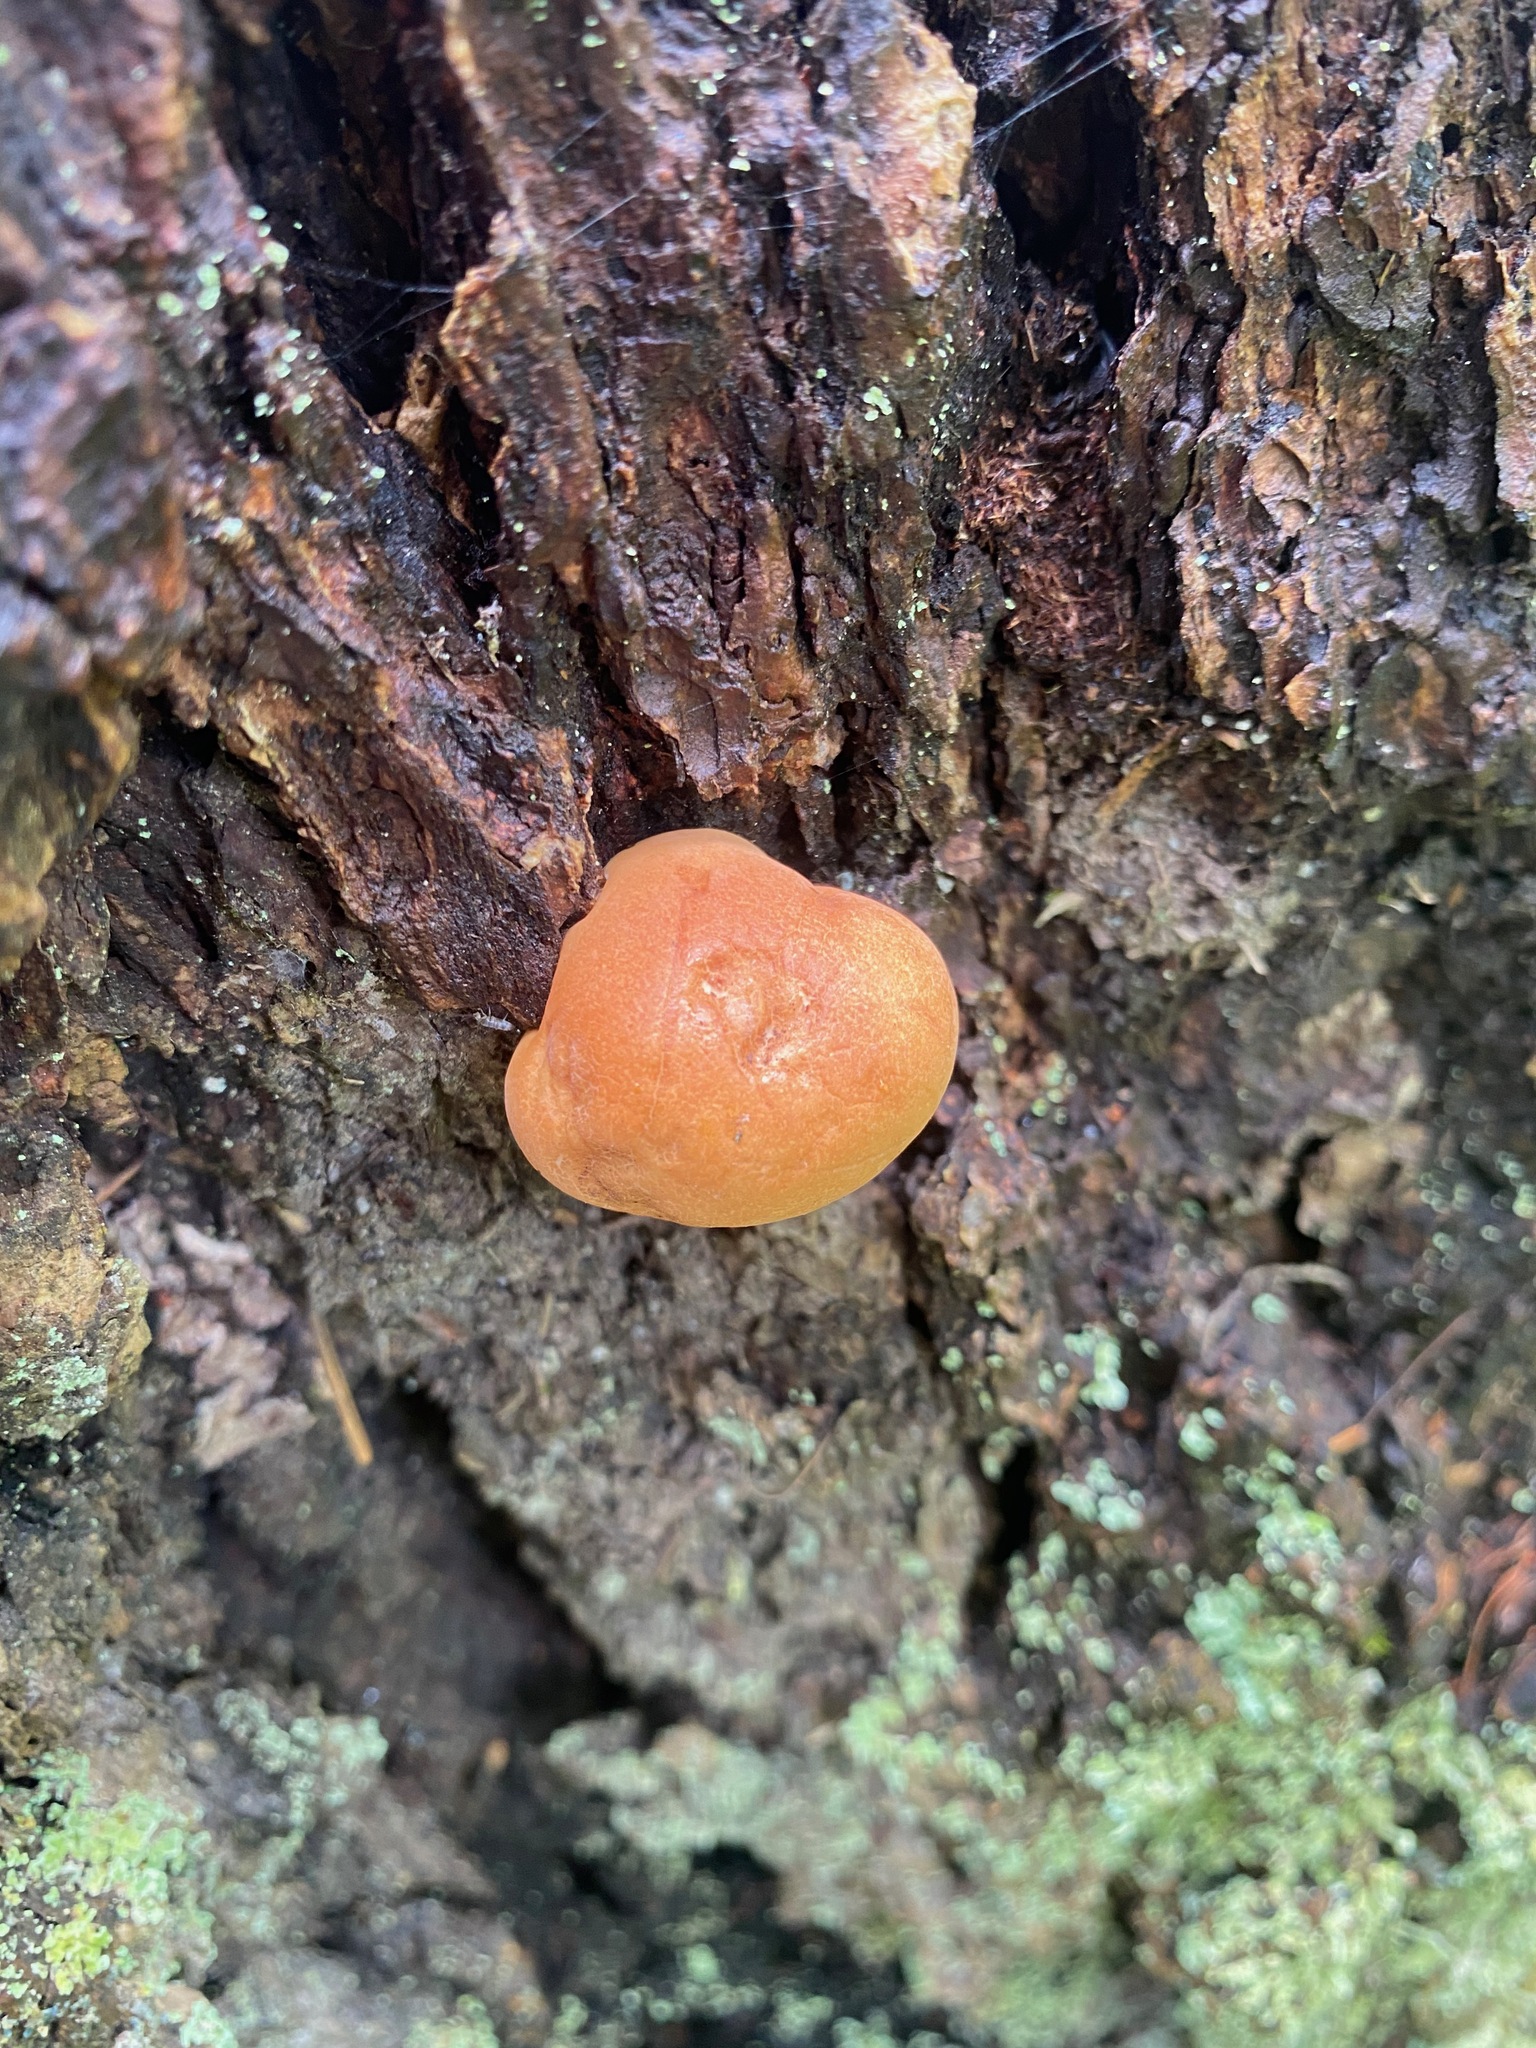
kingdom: Fungi
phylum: Basidiomycota
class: Agaricomycetes
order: Polyporales
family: Polyporaceae
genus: Cryptoporus
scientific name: Cryptoporus volvatus
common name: Veiled polypore
